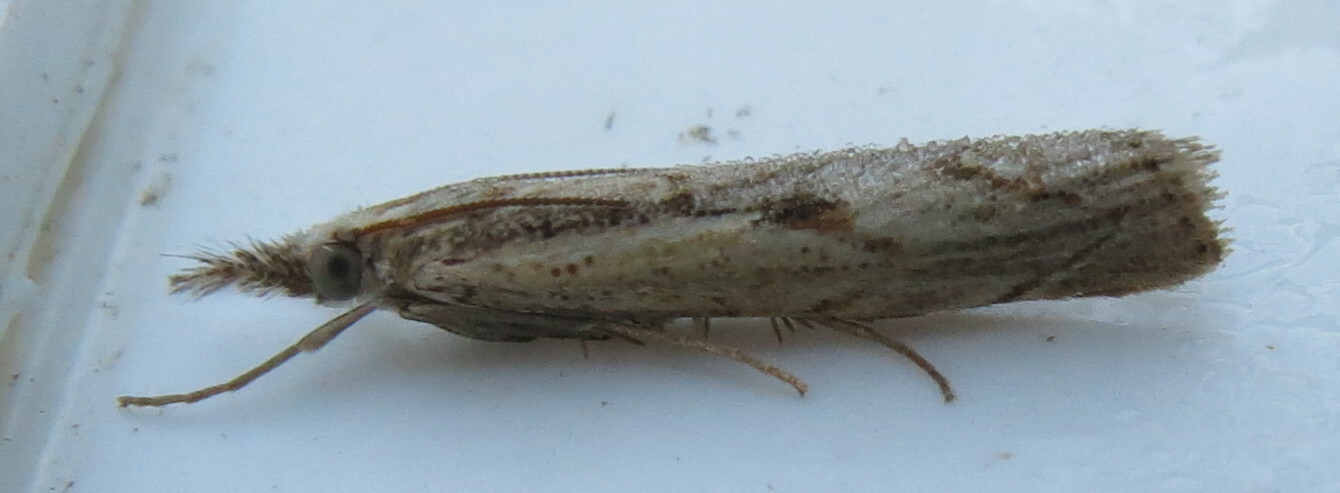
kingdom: Animalia
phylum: Arthropoda
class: Insecta
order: Lepidoptera
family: Crambidae
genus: Agriphila
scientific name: Agriphila geniculea
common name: Elbow-stripe grass-veneer
